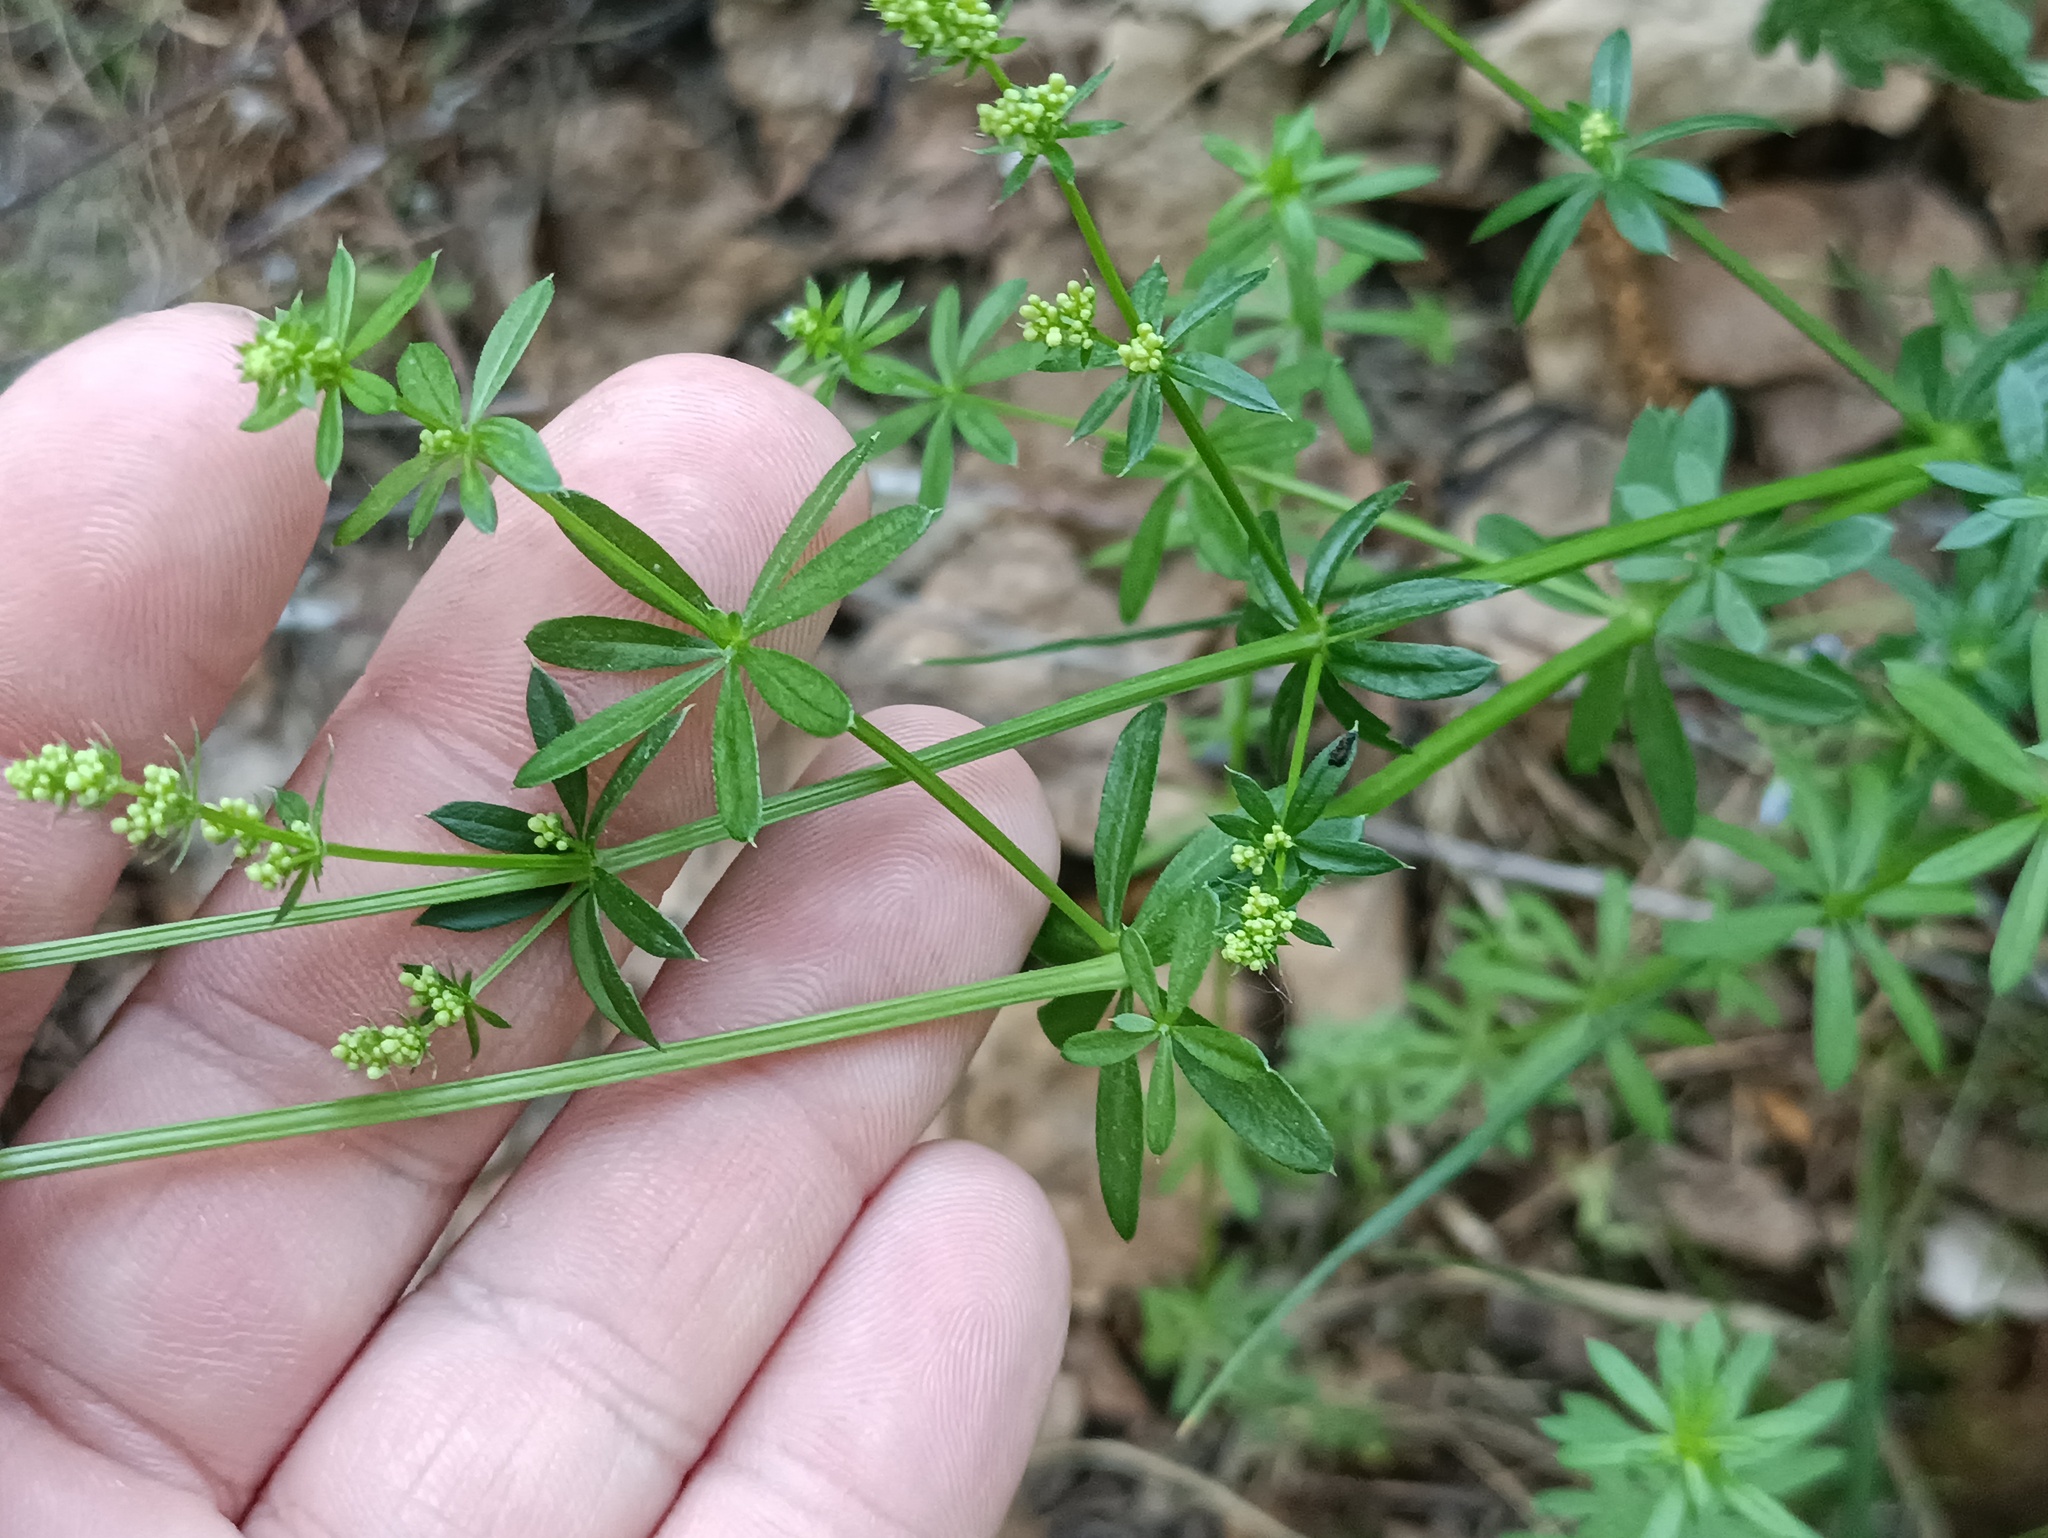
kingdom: Plantae
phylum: Tracheophyta
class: Magnoliopsida
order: Gentianales
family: Rubiaceae
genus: Galium
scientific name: Galium mollugo
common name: Hedge bedstraw
